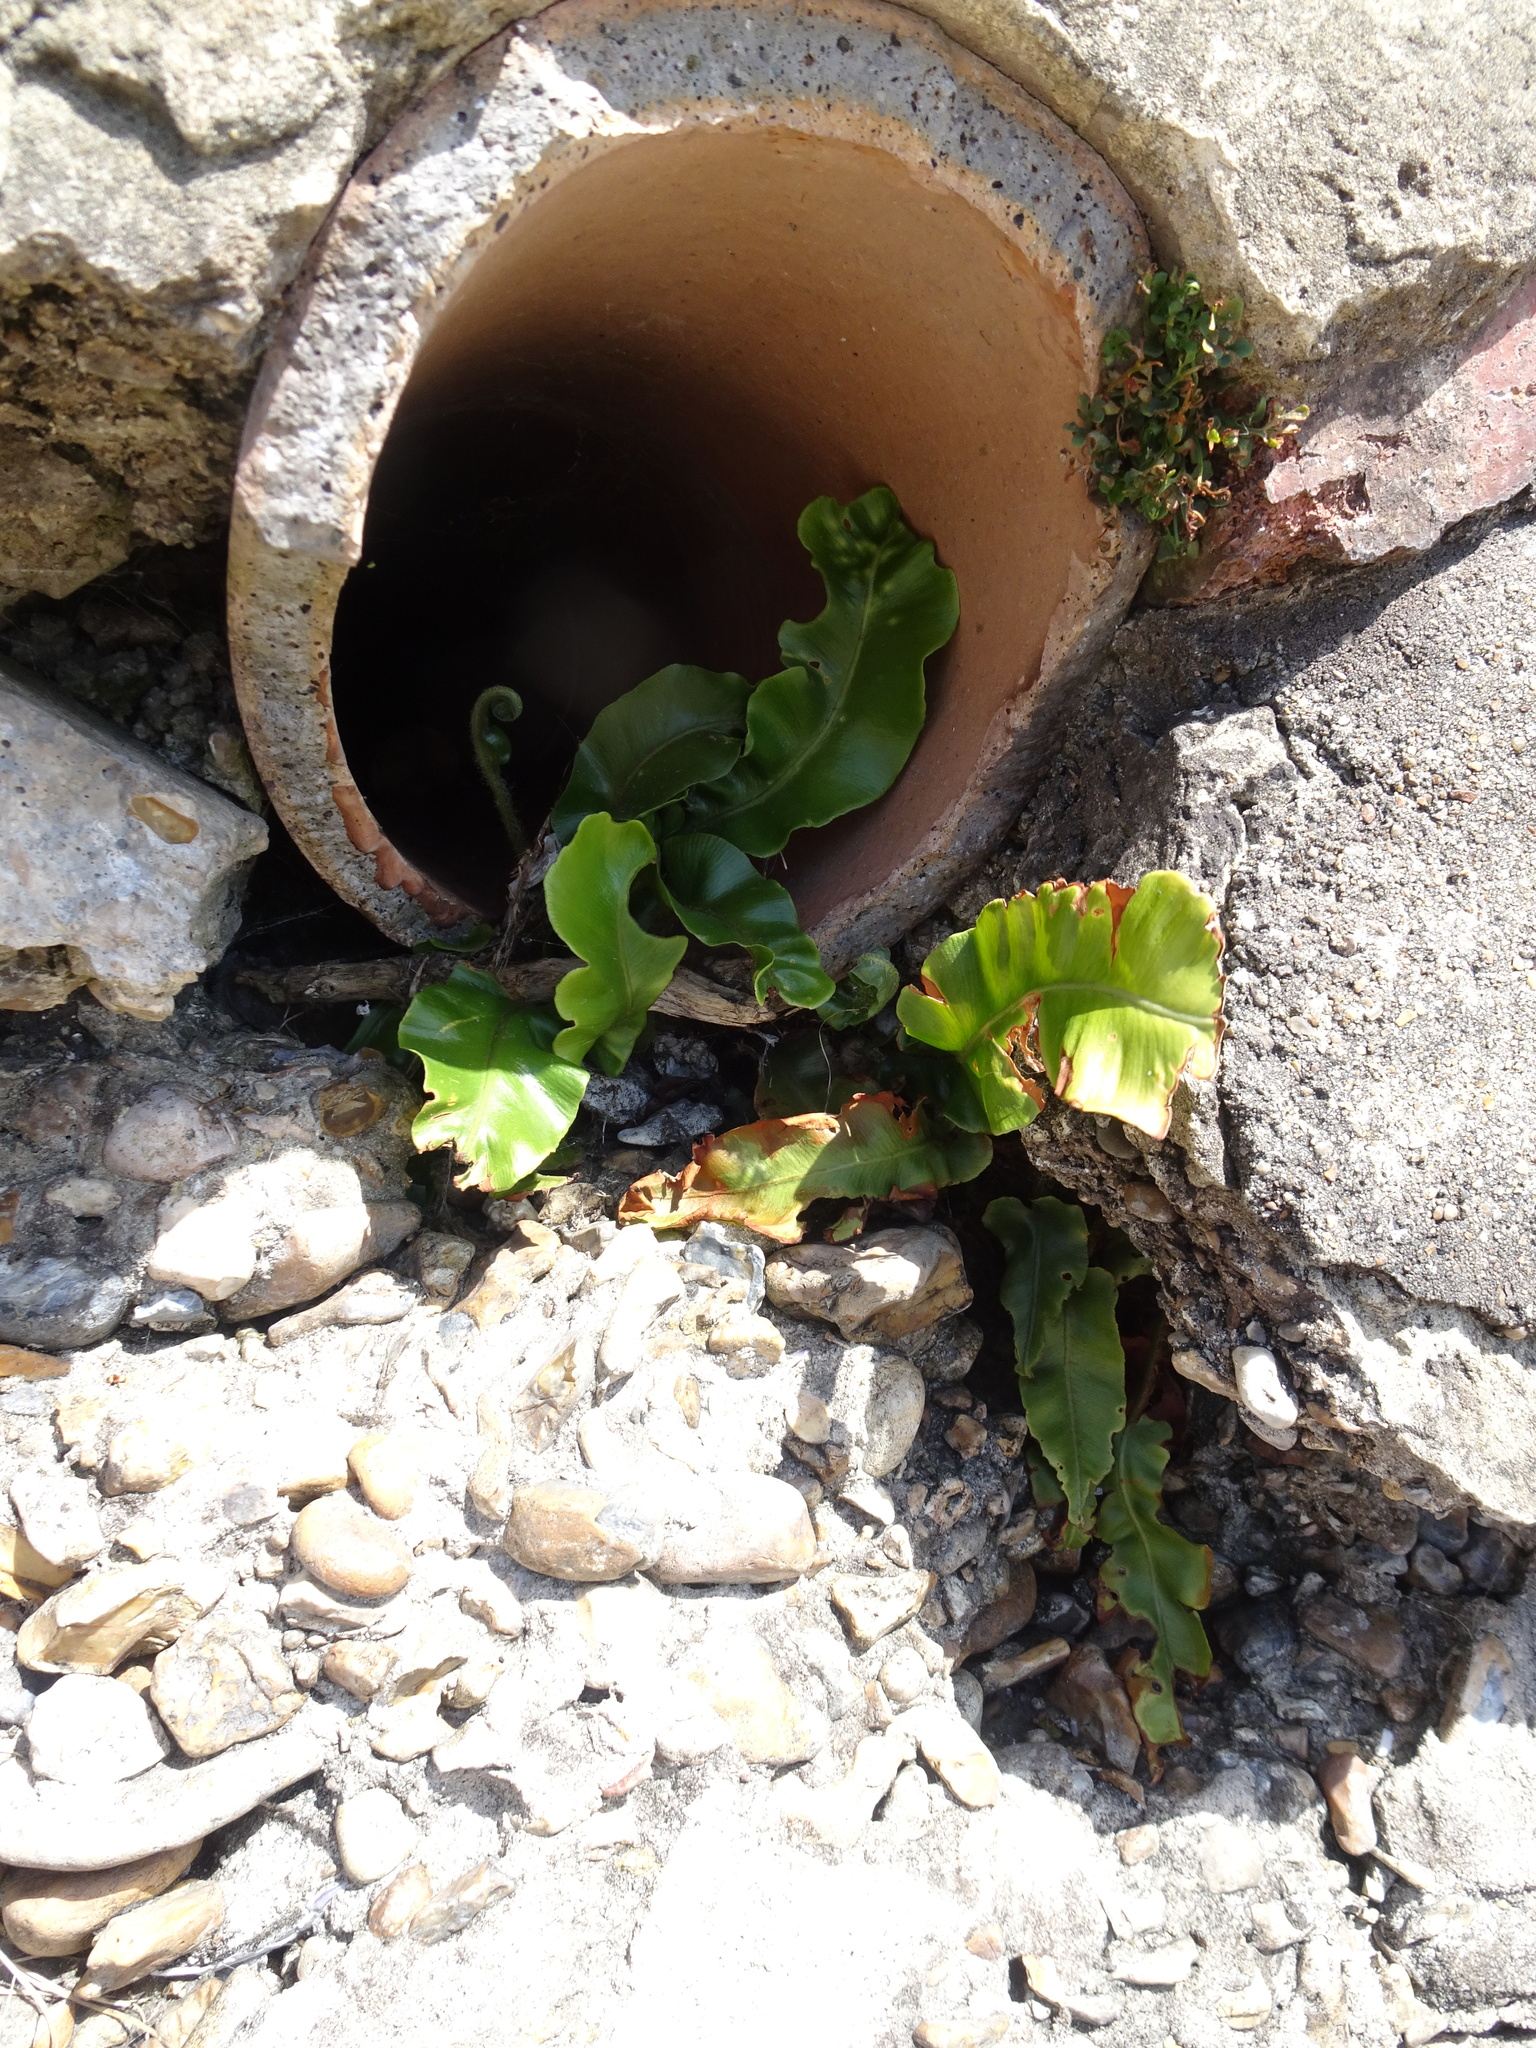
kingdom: Plantae
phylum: Tracheophyta
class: Polypodiopsida
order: Polypodiales
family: Aspleniaceae
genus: Asplenium
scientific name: Asplenium scolopendrium
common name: Hart's-tongue fern
